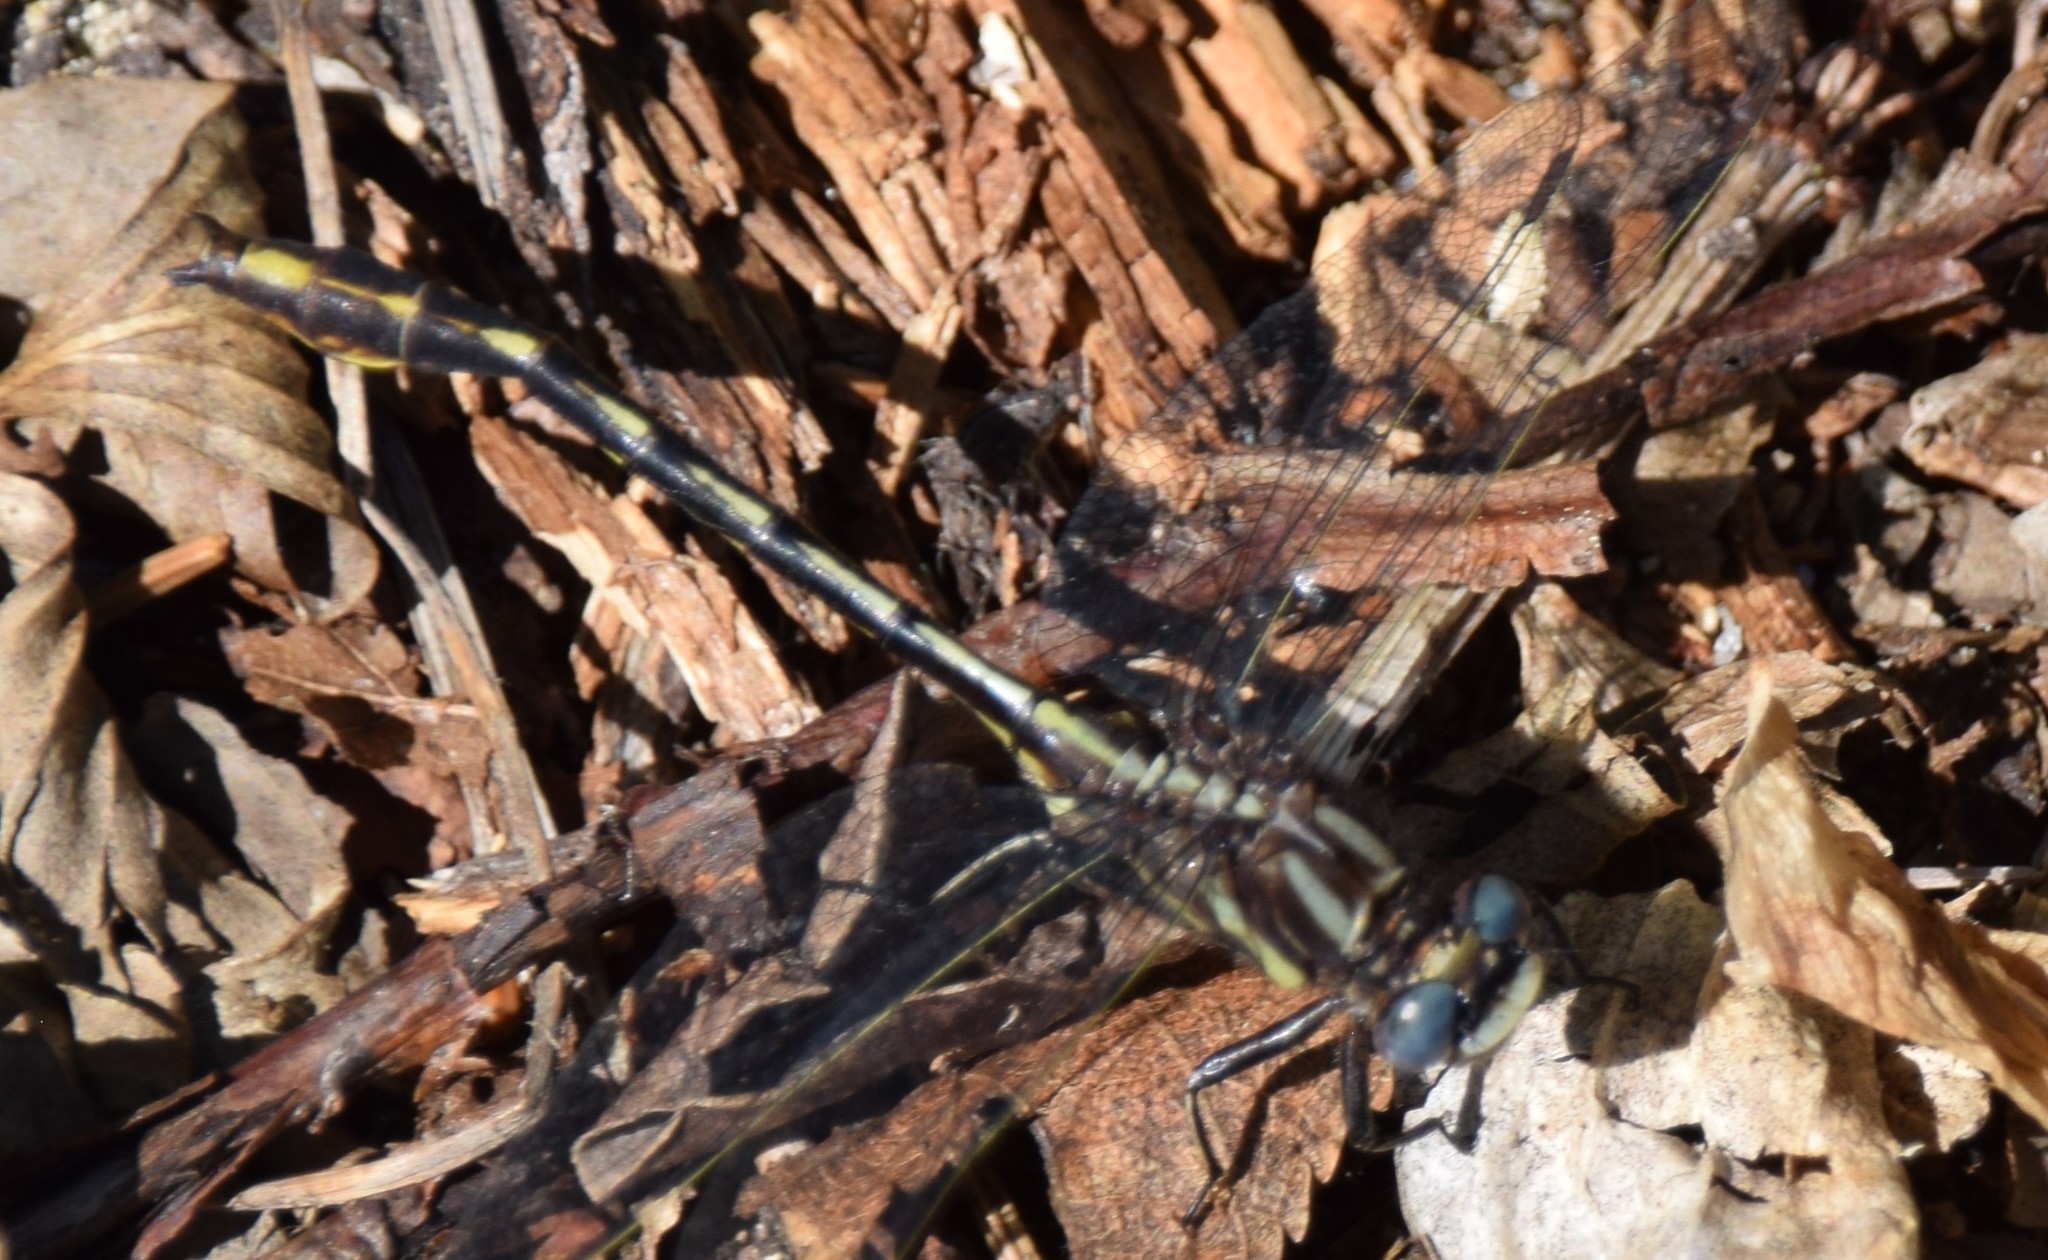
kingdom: Animalia
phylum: Arthropoda
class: Insecta
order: Odonata
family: Gomphidae
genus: Phanogomphus
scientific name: Phanogomphus exilis
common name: Lancet clubtail
